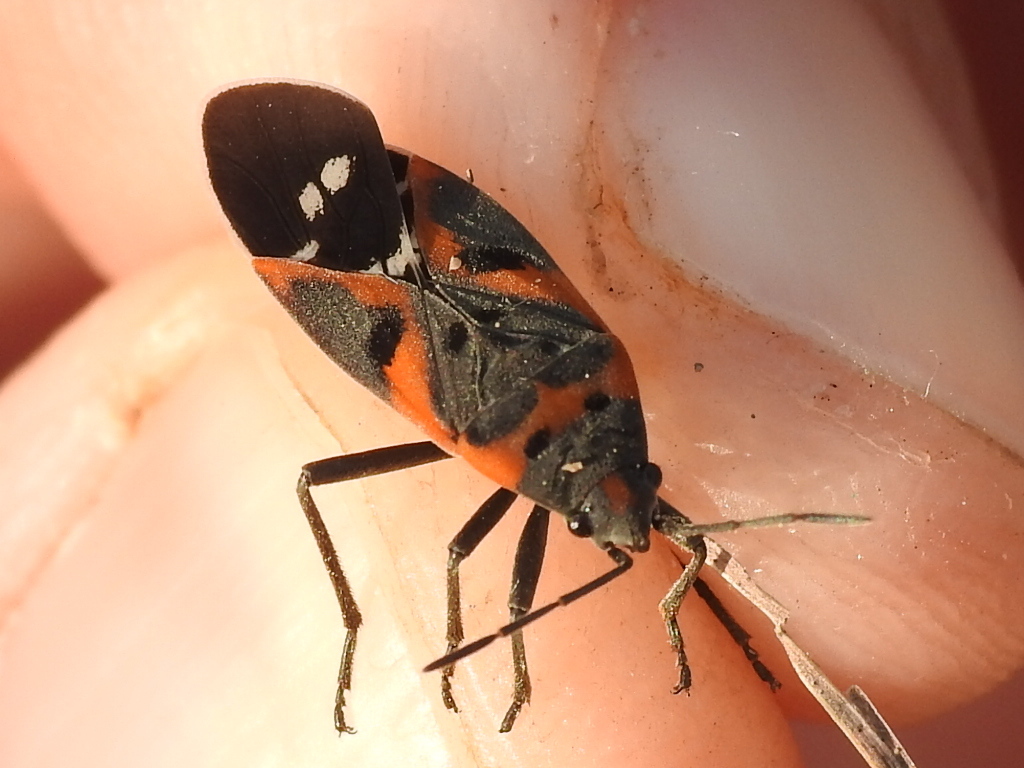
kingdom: Animalia
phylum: Arthropoda
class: Insecta
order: Hemiptera
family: Lygaeidae
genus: Lygaeus
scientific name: Lygaeus kalmii
